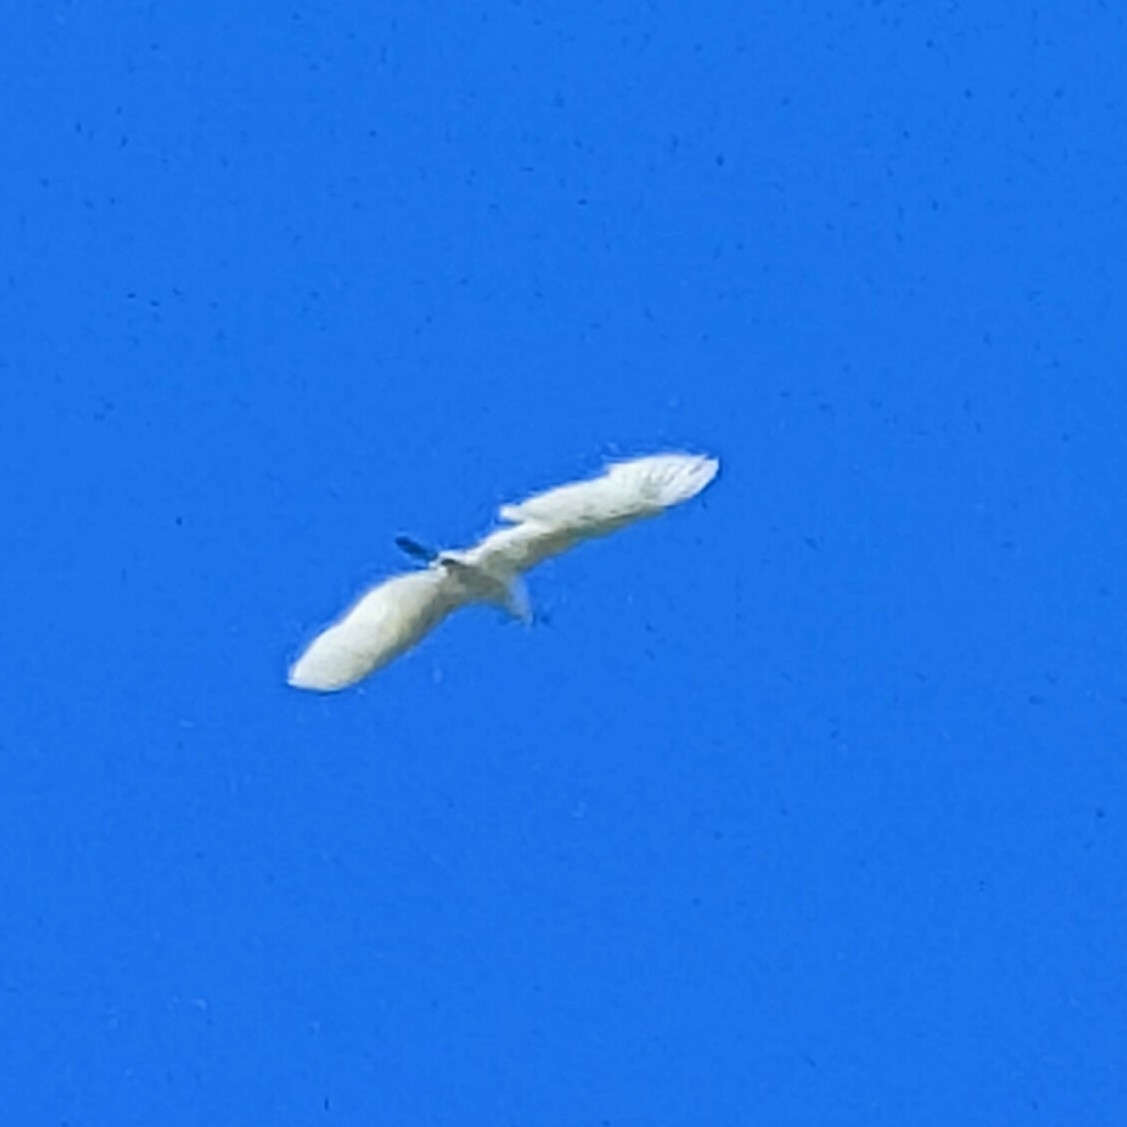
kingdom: Animalia
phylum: Chordata
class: Aves
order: Pelecaniformes
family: Ardeidae
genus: Ardea
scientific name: Ardea alba
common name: Great egret
